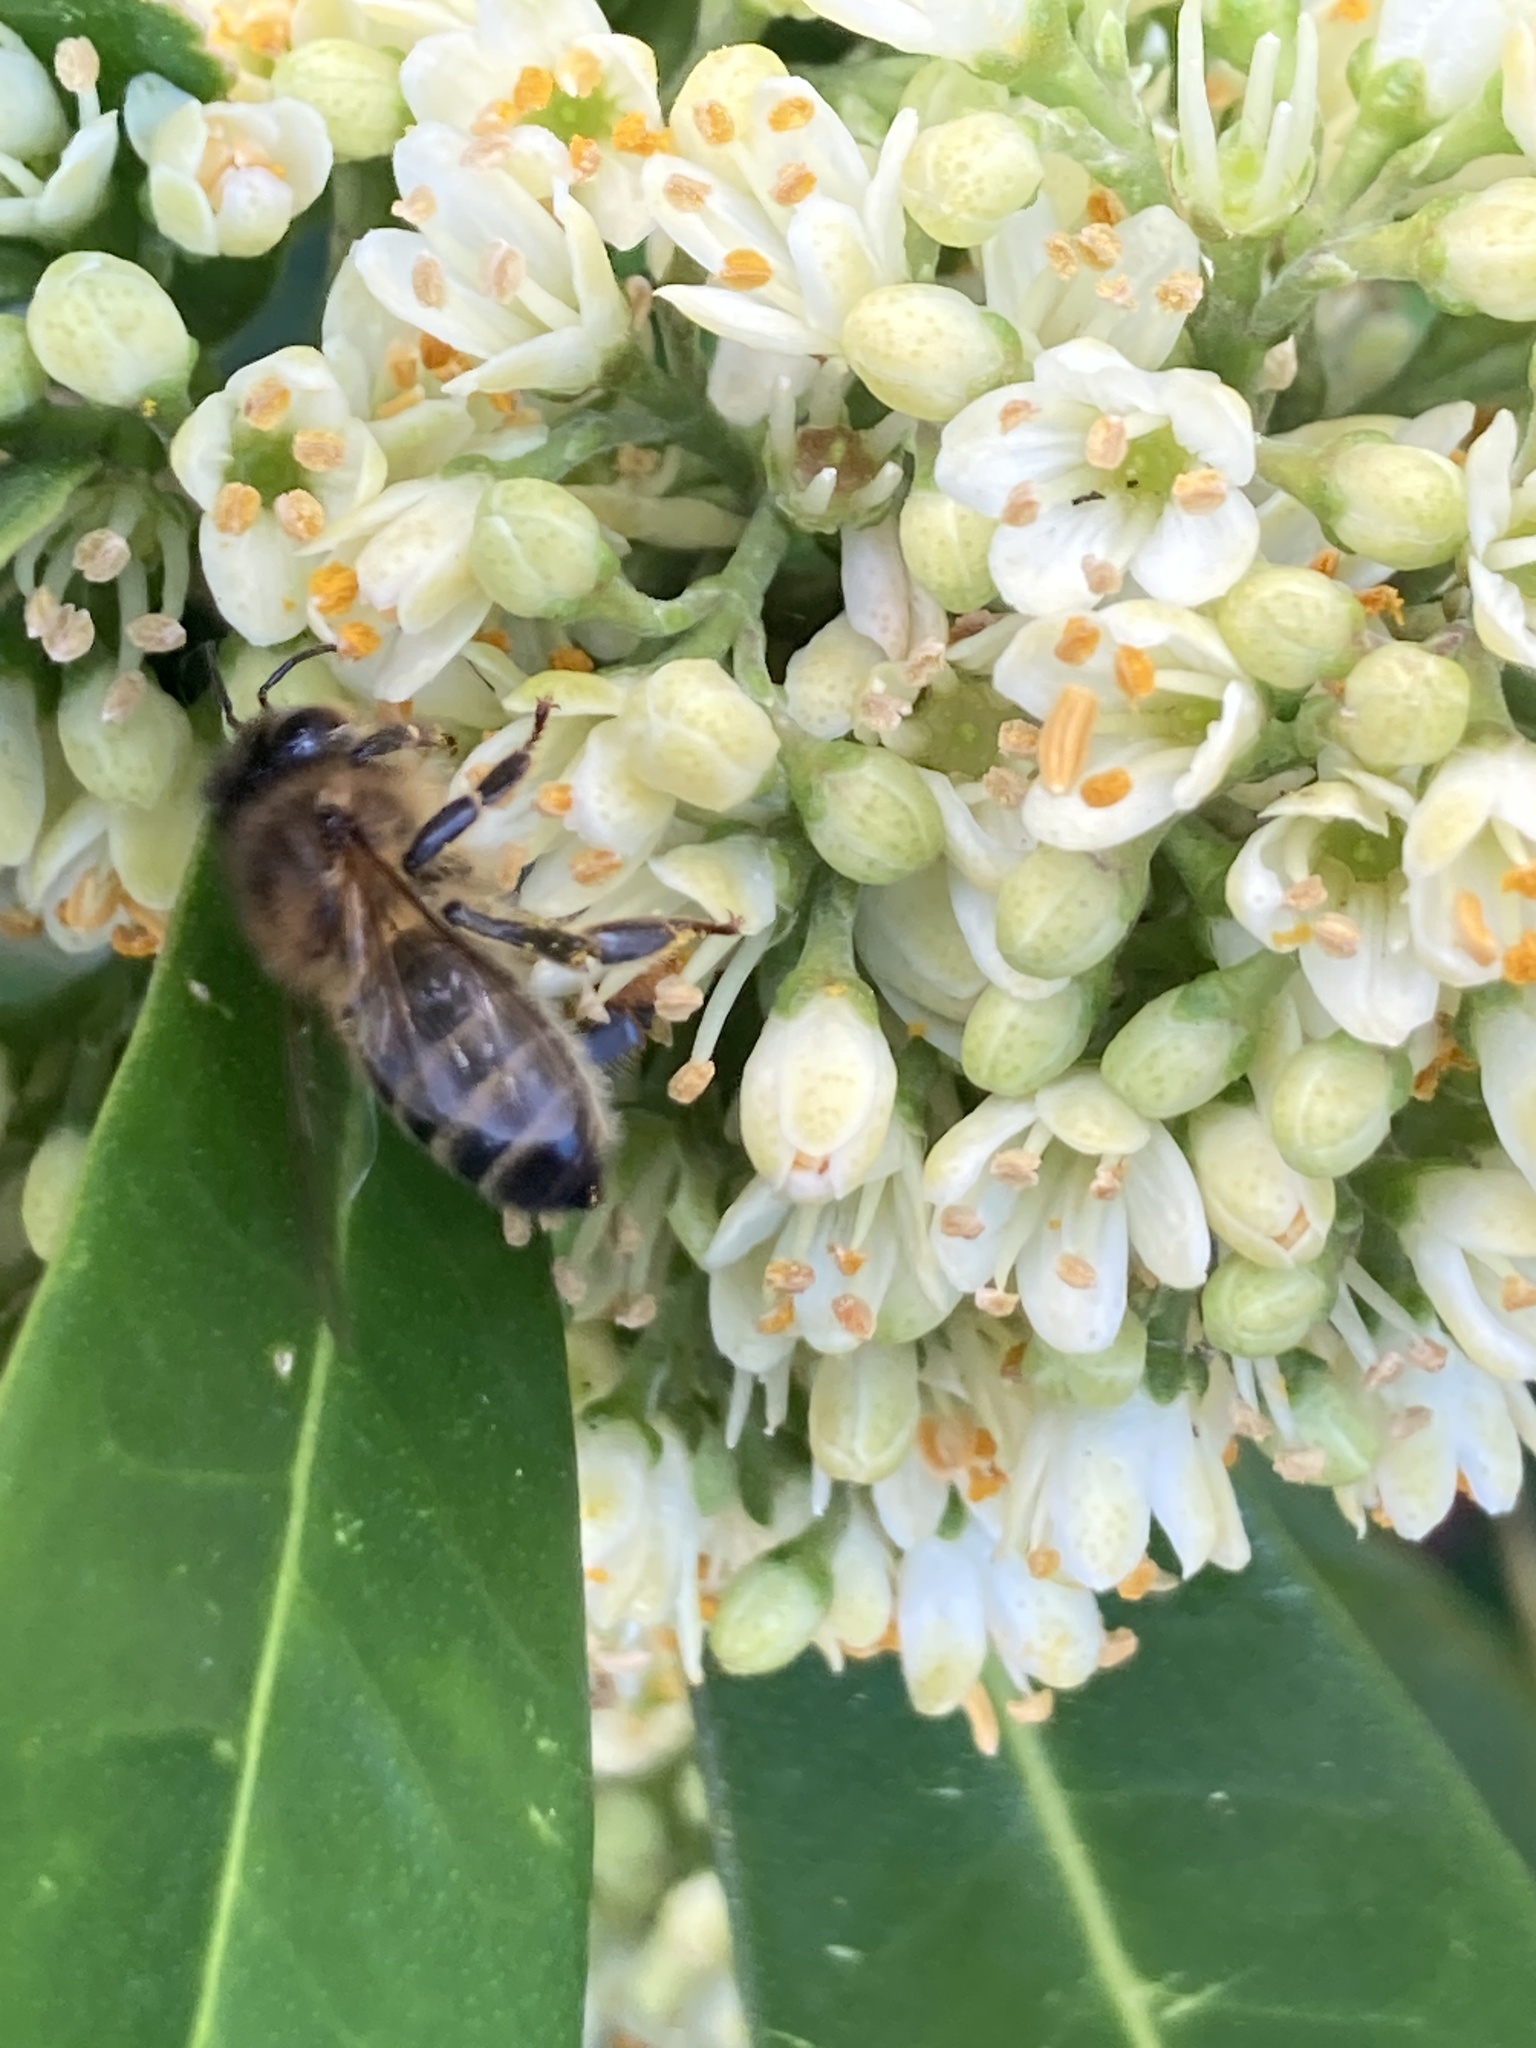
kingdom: Animalia
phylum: Arthropoda
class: Insecta
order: Hymenoptera
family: Apidae
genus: Apis
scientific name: Apis mellifera
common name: Honey bee
